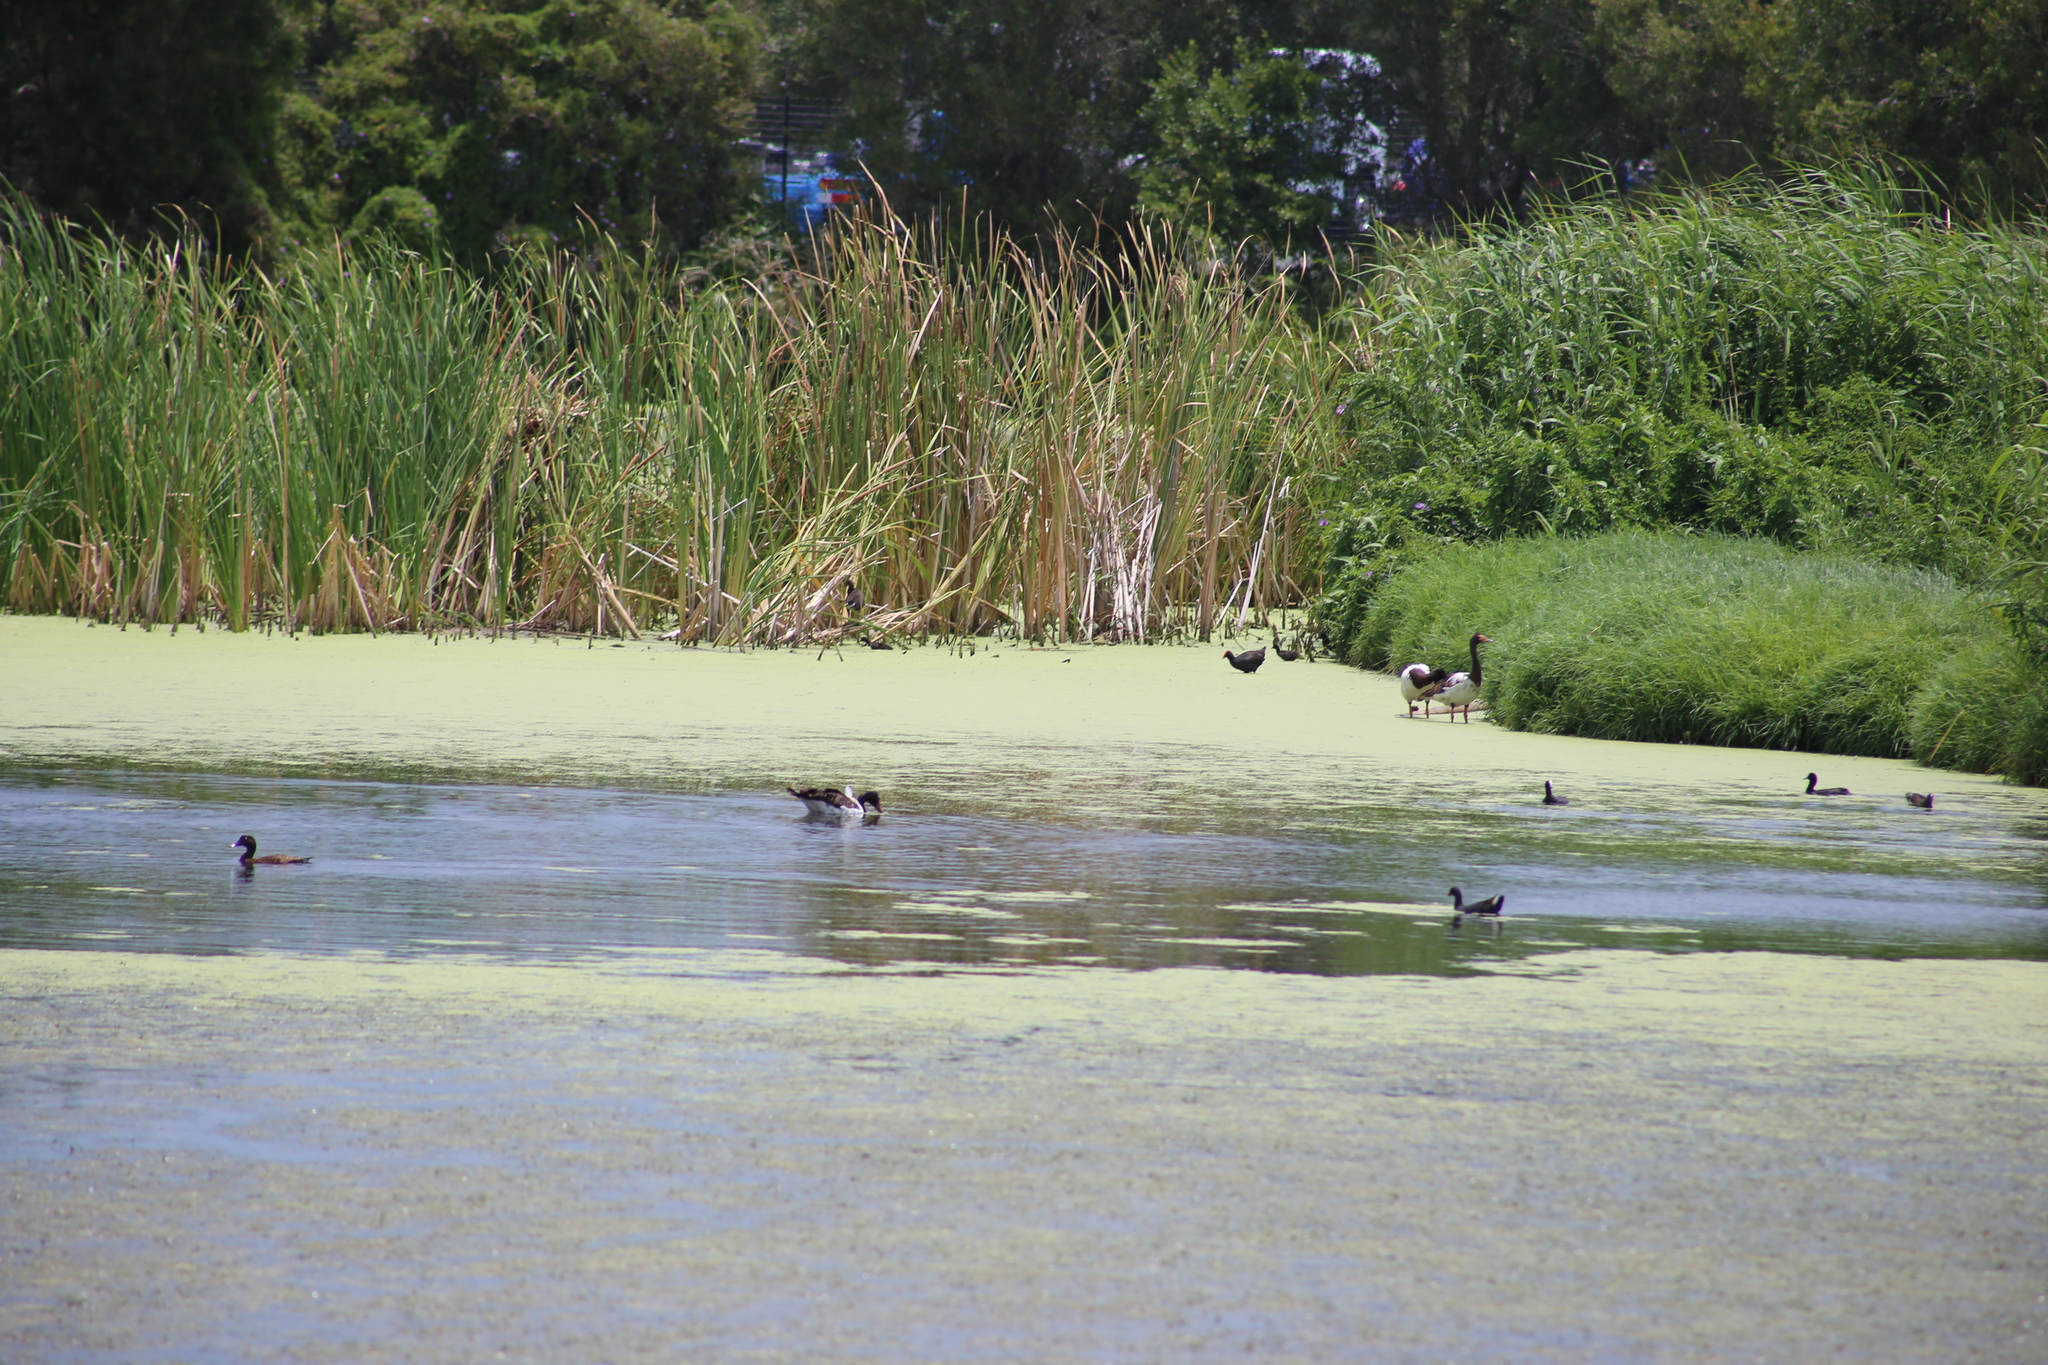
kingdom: Animalia
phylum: Chordata
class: Aves
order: Anseriformes
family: Anseranatidae
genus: Anseranas
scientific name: Anseranas semipalmata
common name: Magpie goose
